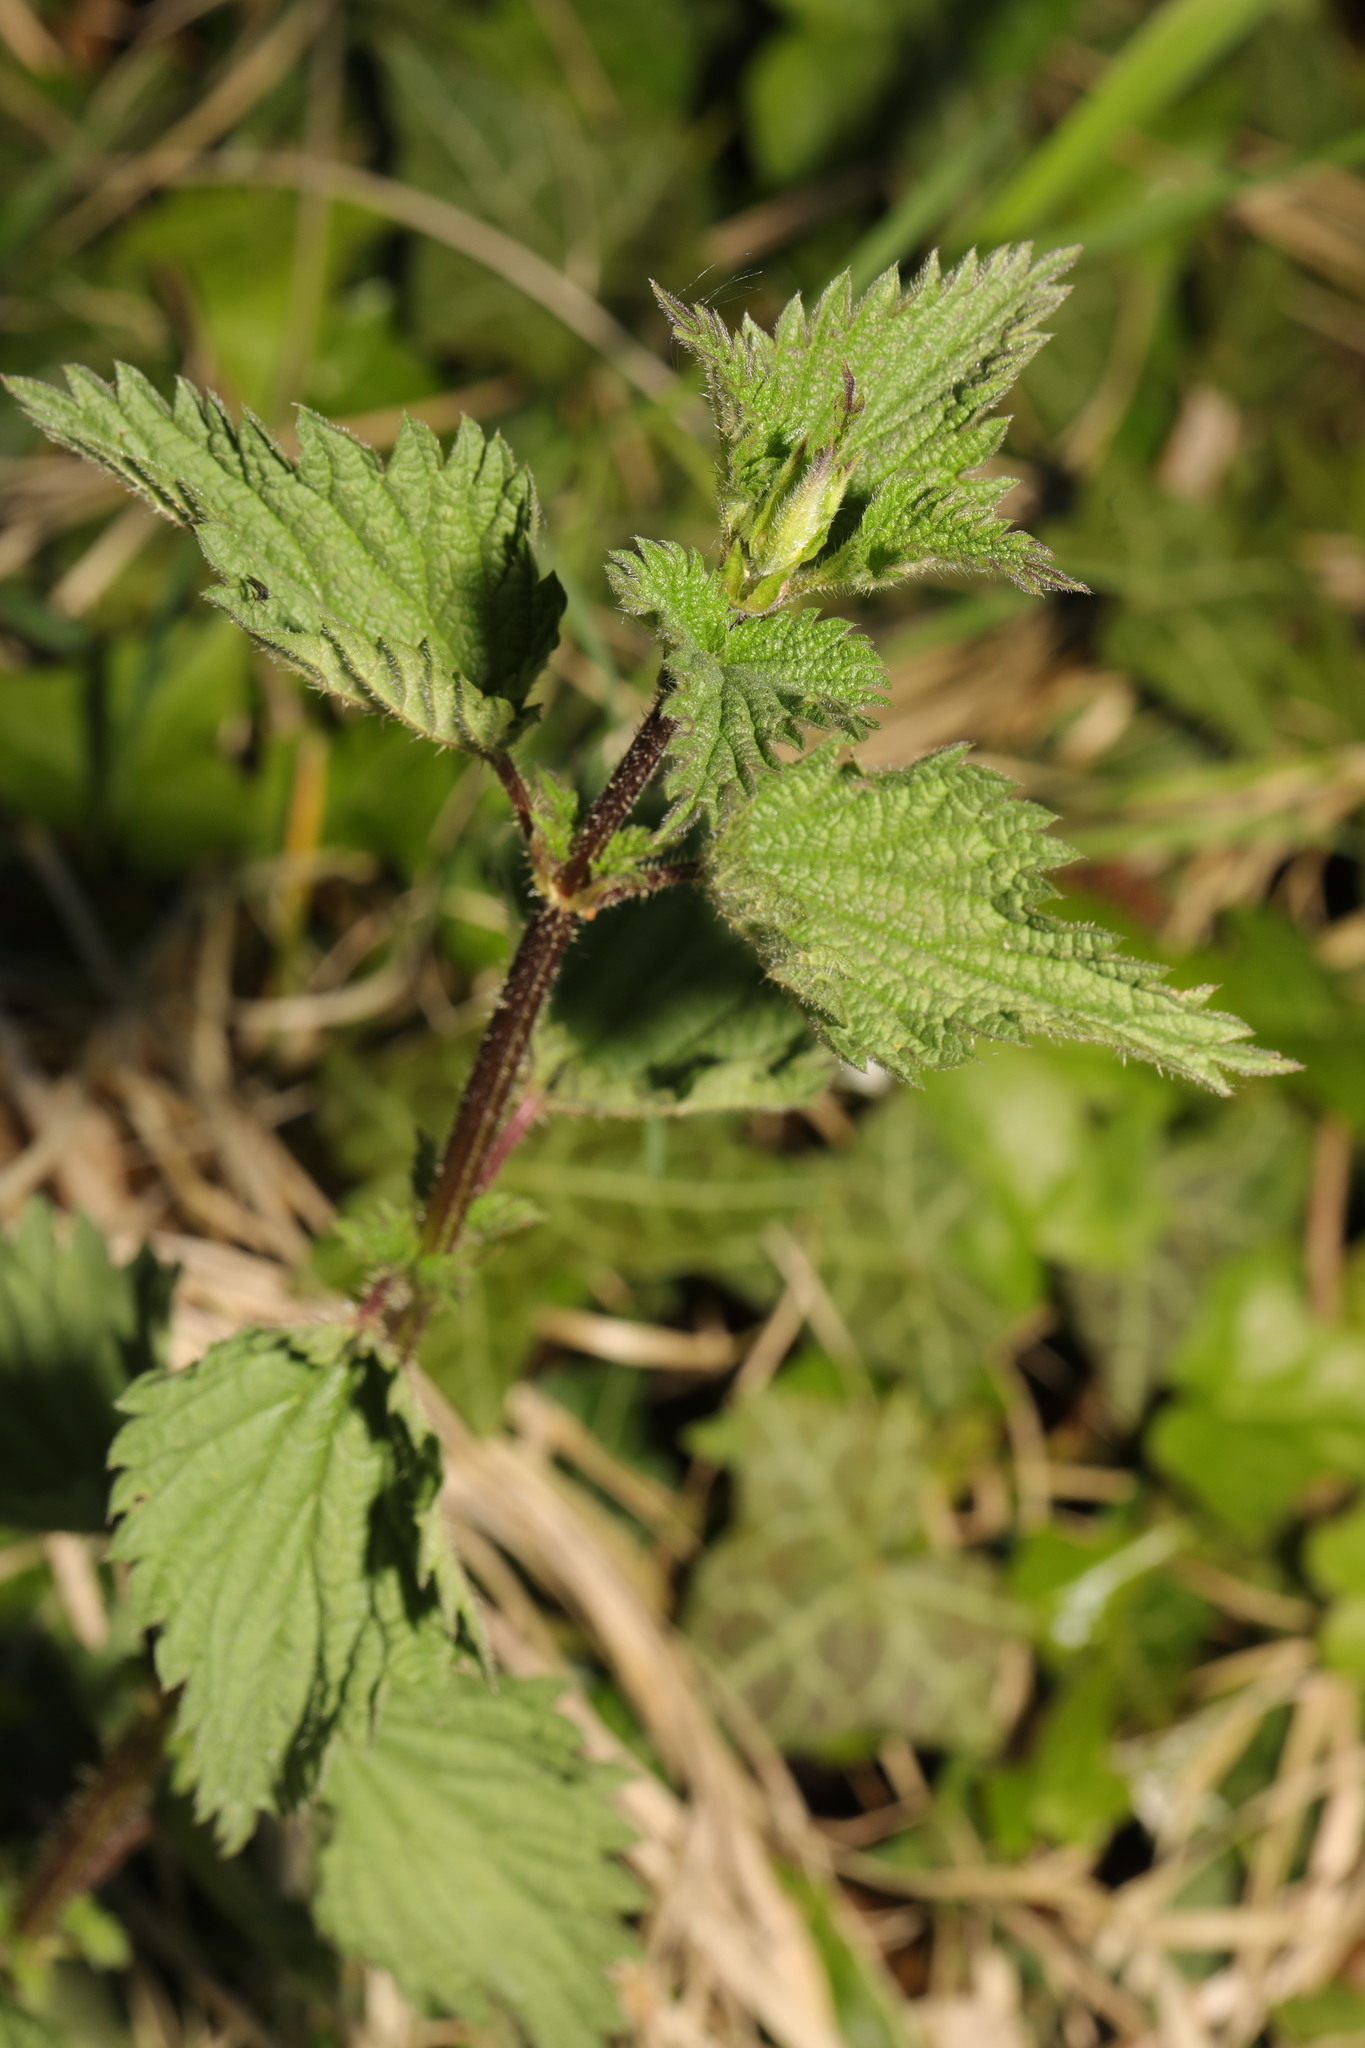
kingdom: Plantae
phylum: Tracheophyta
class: Magnoliopsida
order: Rosales
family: Urticaceae
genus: Urtica
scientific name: Urtica dioica
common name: Common nettle
